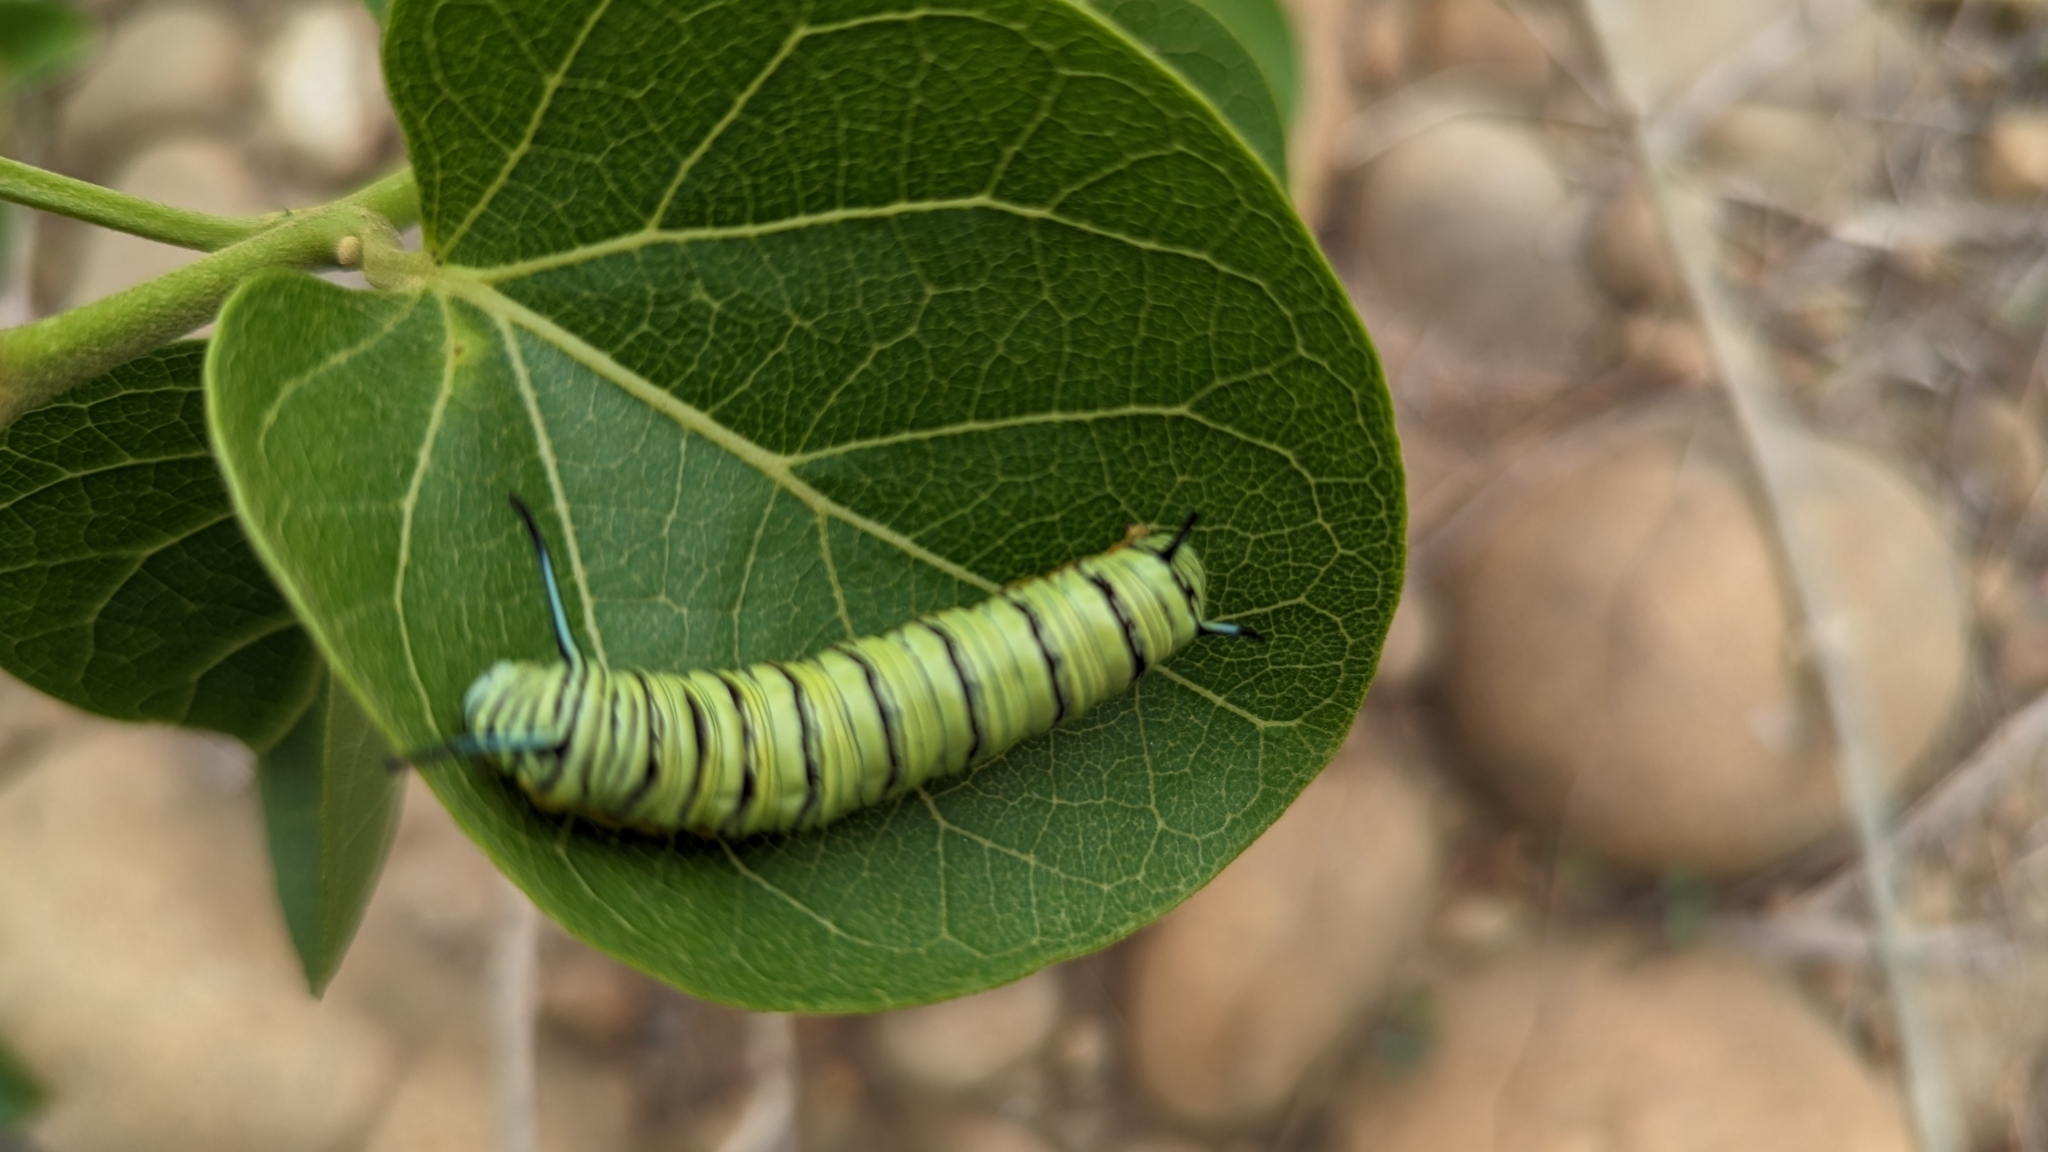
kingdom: Animalia
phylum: Arthropoda
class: Insecta
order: Lepidoptera
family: Nymphalidae
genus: Tirumala
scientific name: Tirumala limniace
